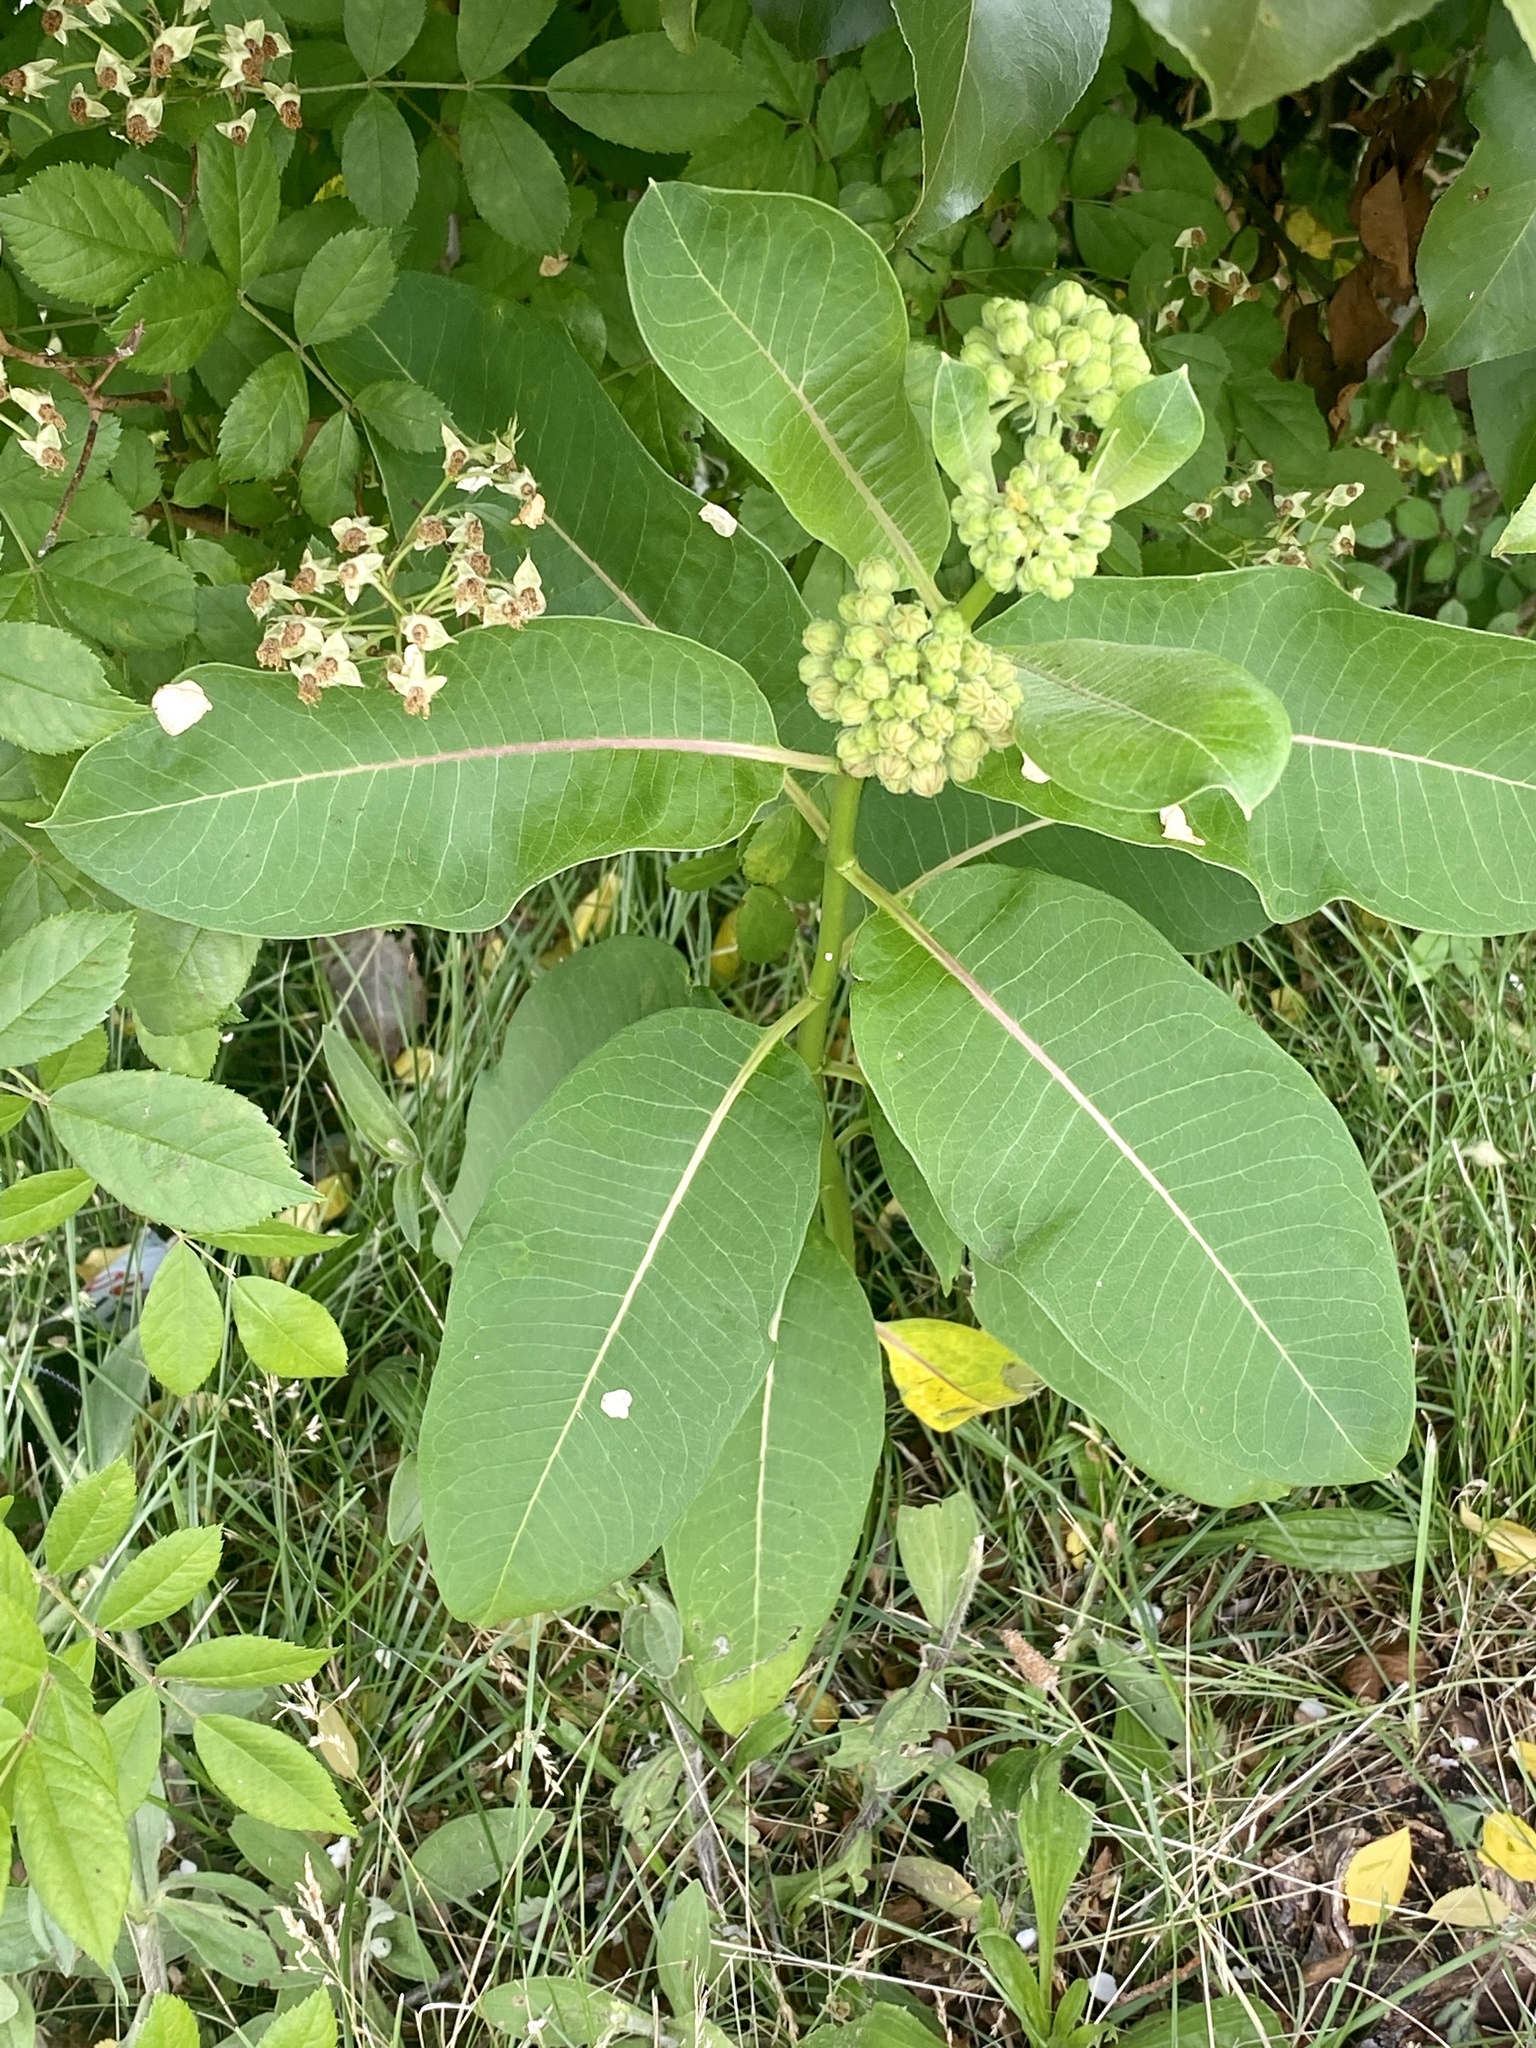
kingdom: Plantae
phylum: Tracheophyta
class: Magnoliopsida
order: Gentianales
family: Apocynaceae
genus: Asclepias
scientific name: Asclepias syriaca
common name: Common milkweed
